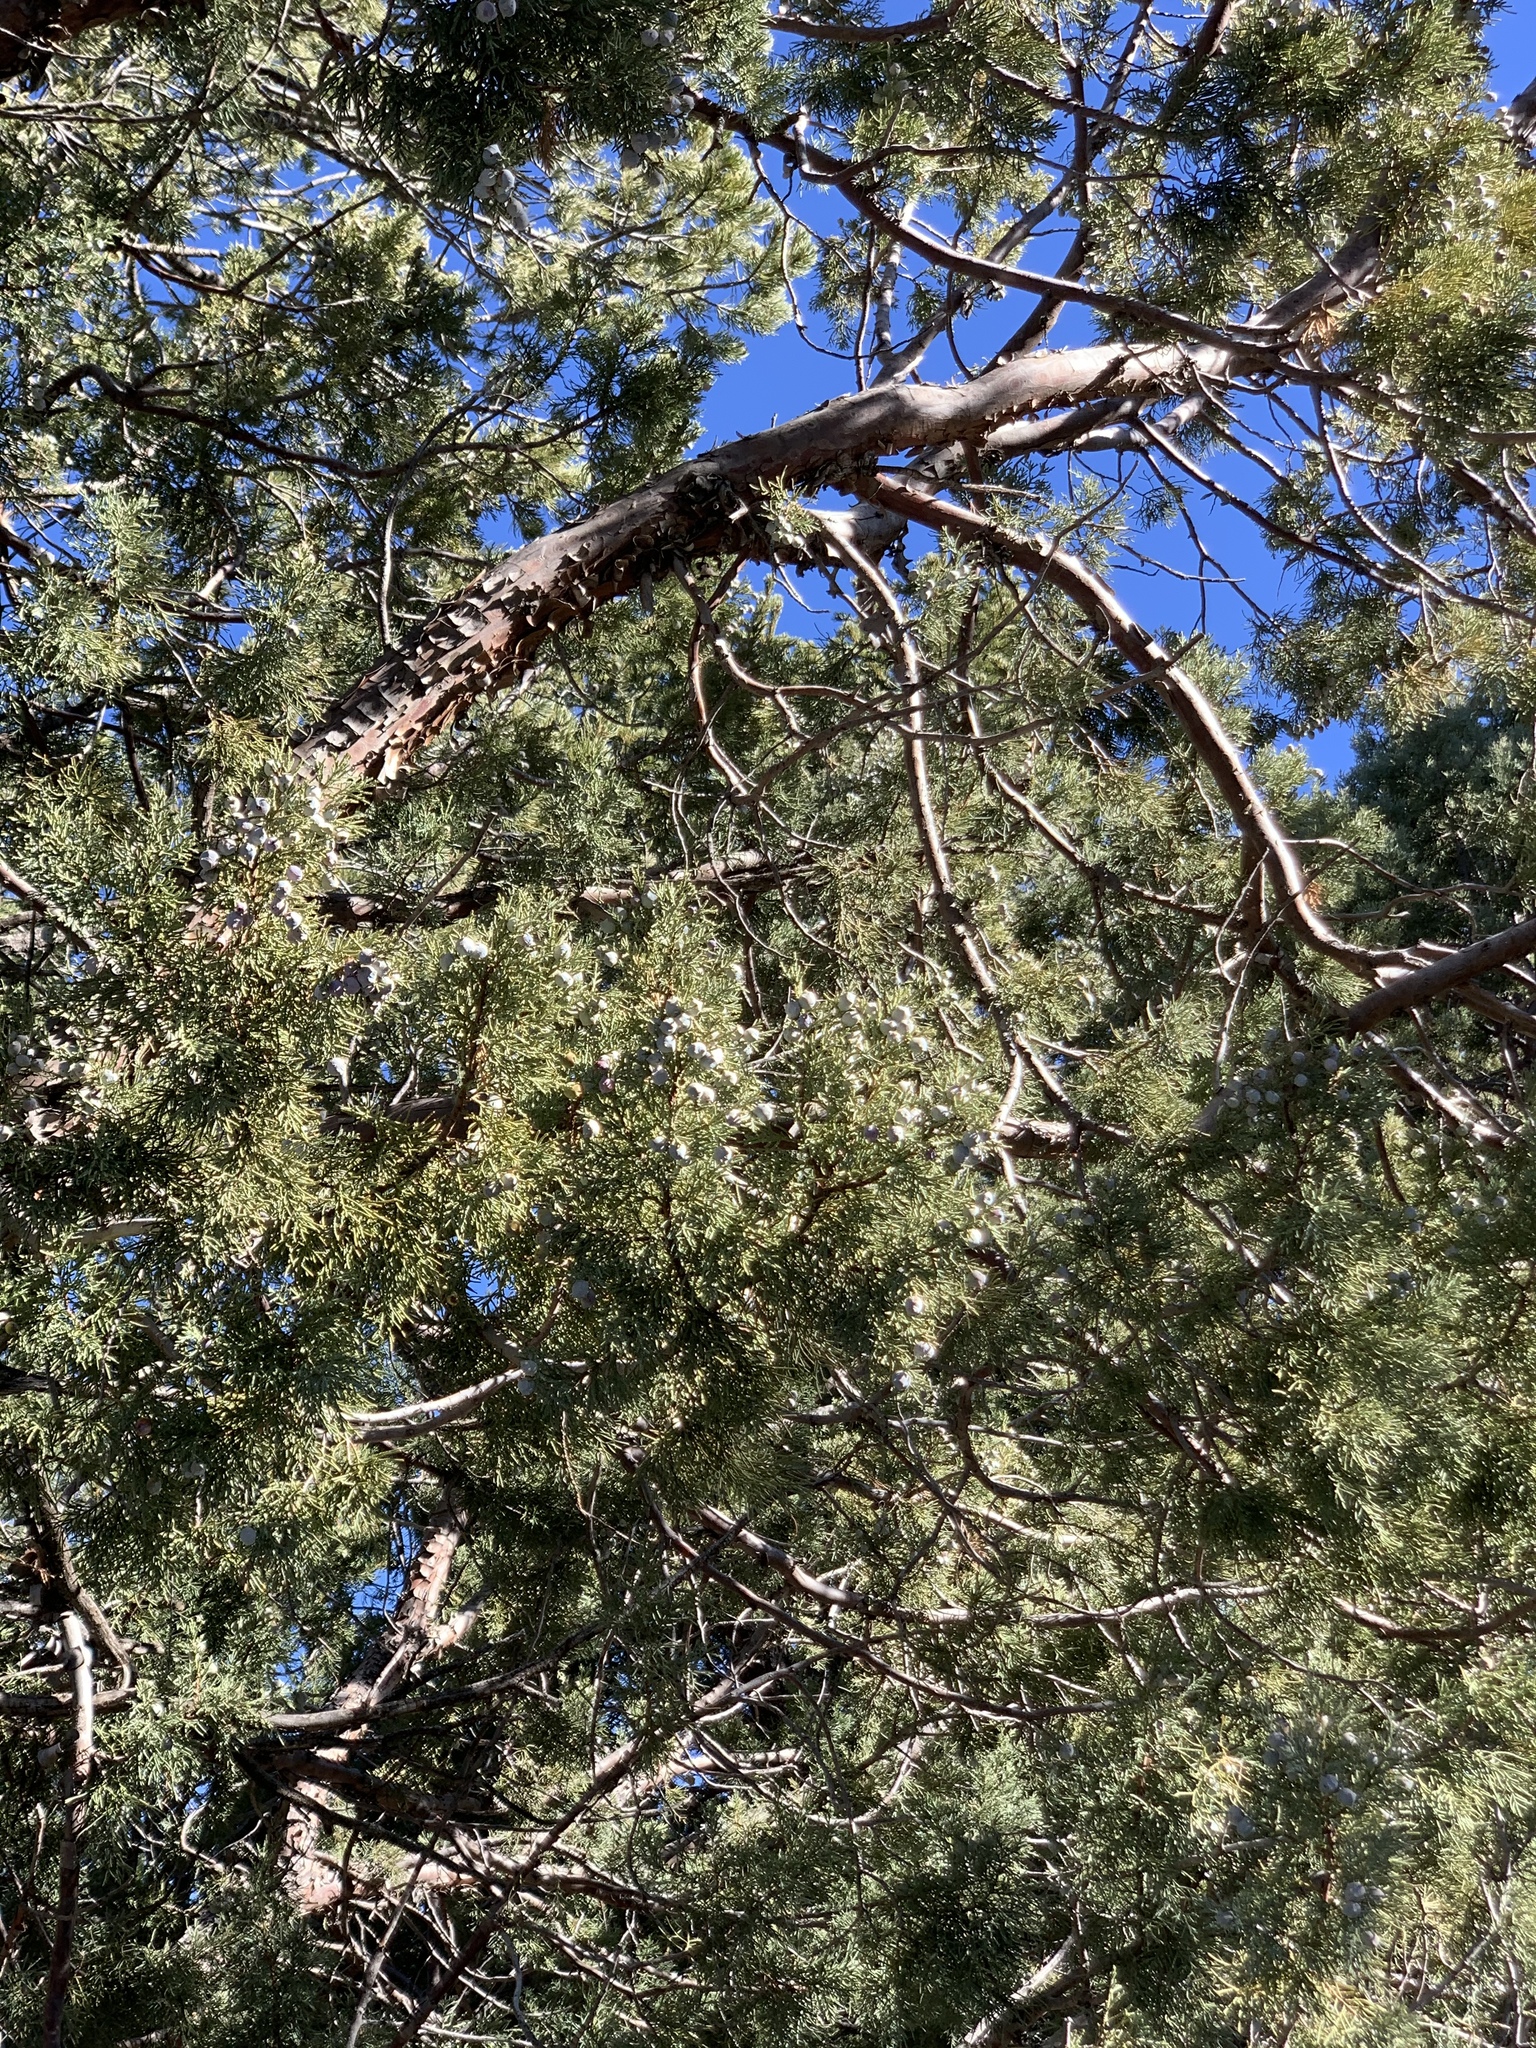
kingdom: Plantae
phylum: Tracheophyta
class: Pinopsida
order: Pinales
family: Cupressaceae
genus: Juniperus
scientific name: Juniperus deppeana
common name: Alligator juniper
